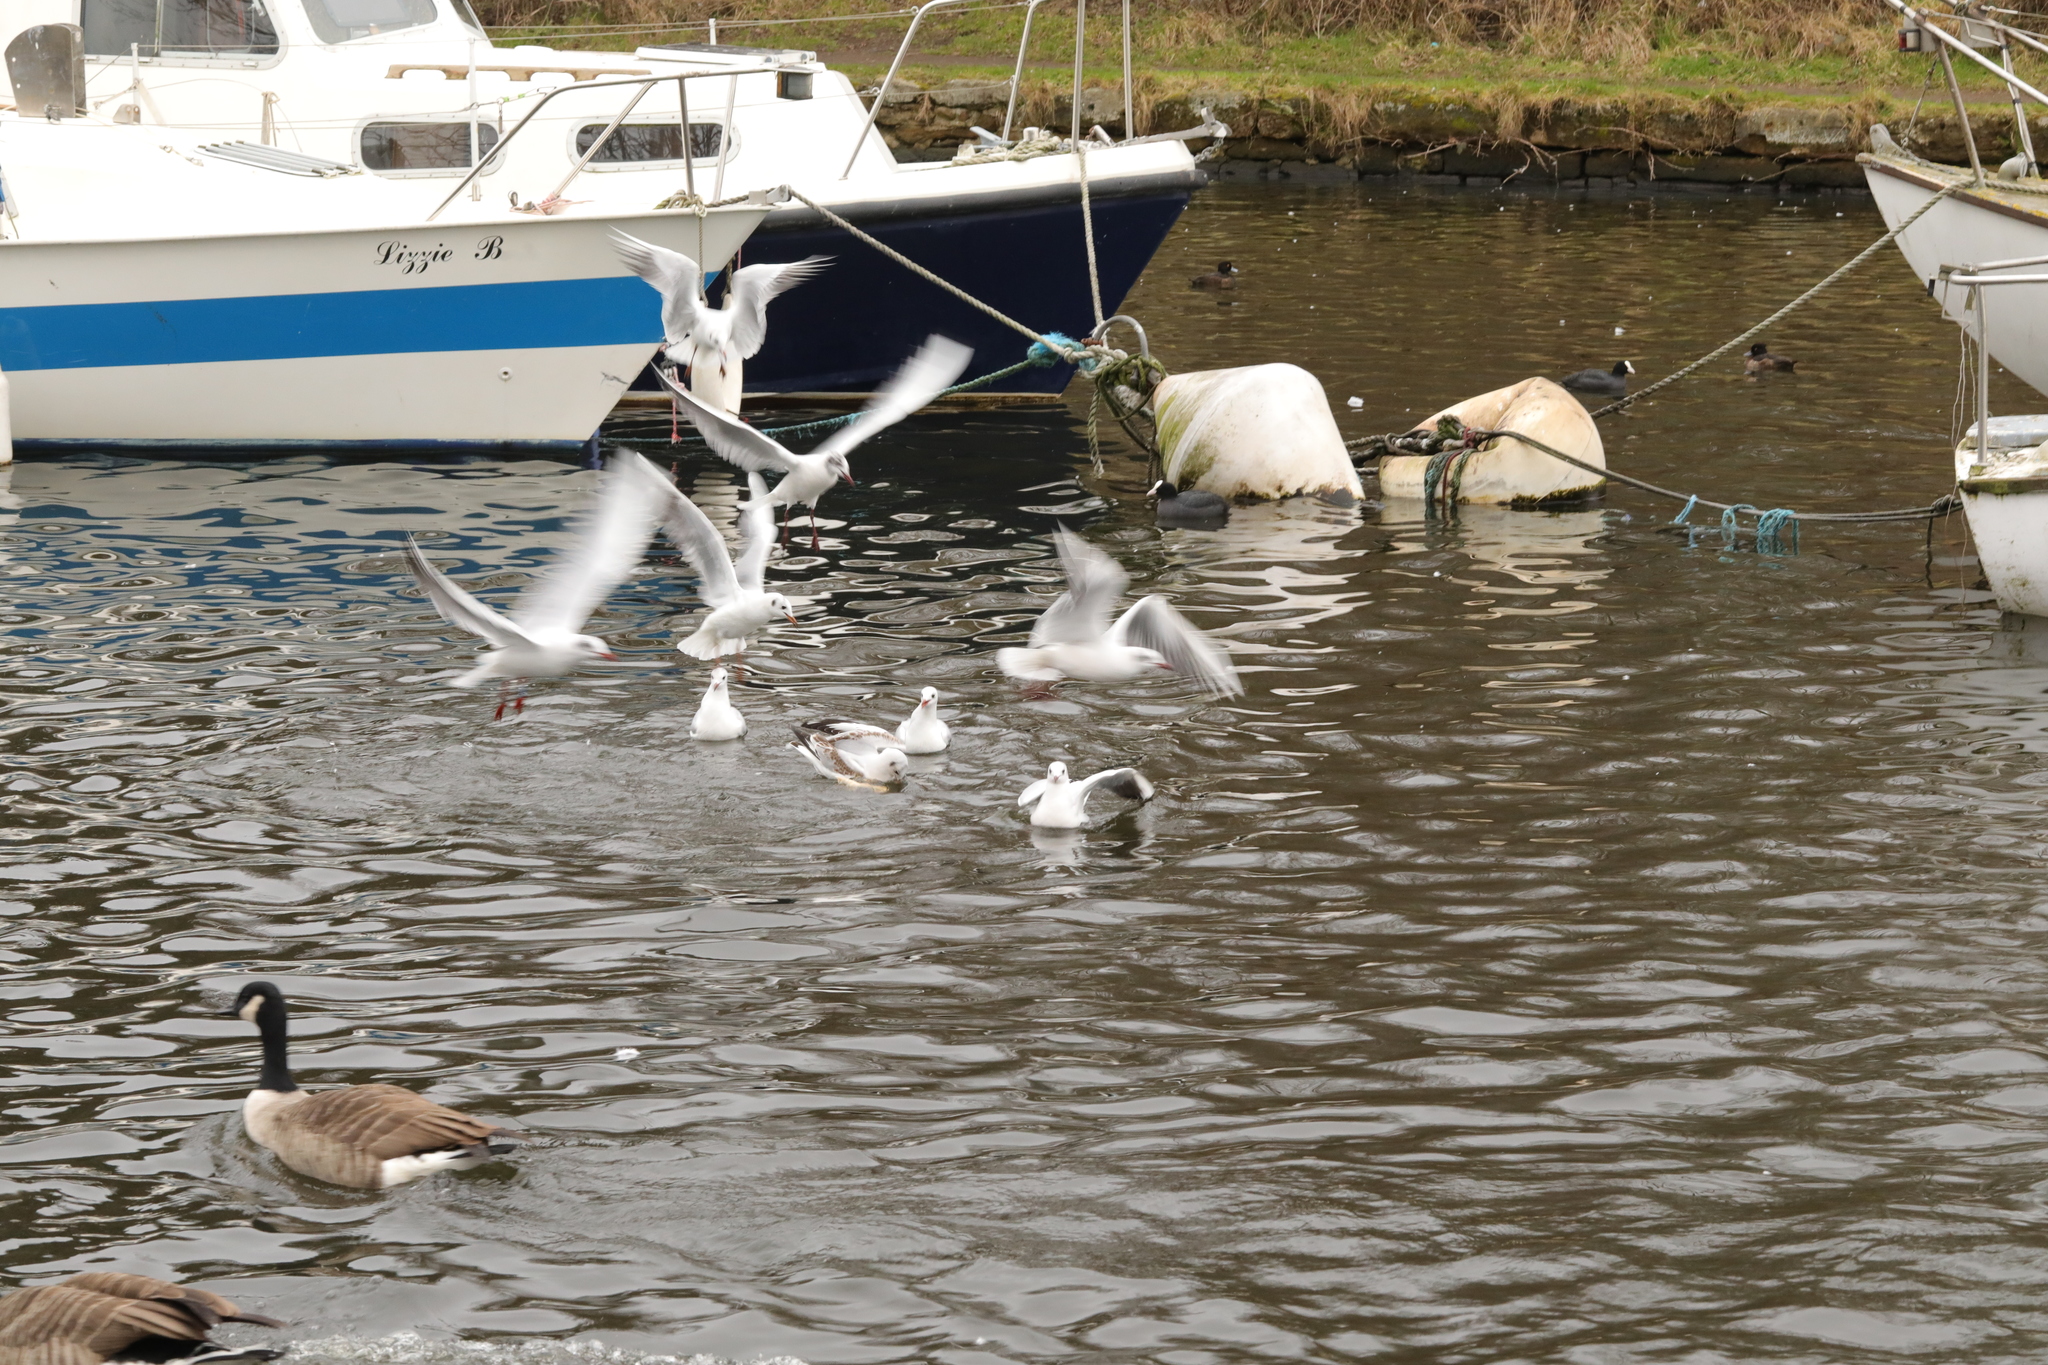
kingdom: Animalia
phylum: Chordata
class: Aves
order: Charadriiformes
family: Laridae
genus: Chroicocephalus
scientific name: Chroicocephalus ridibundus
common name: Black-headed gull
